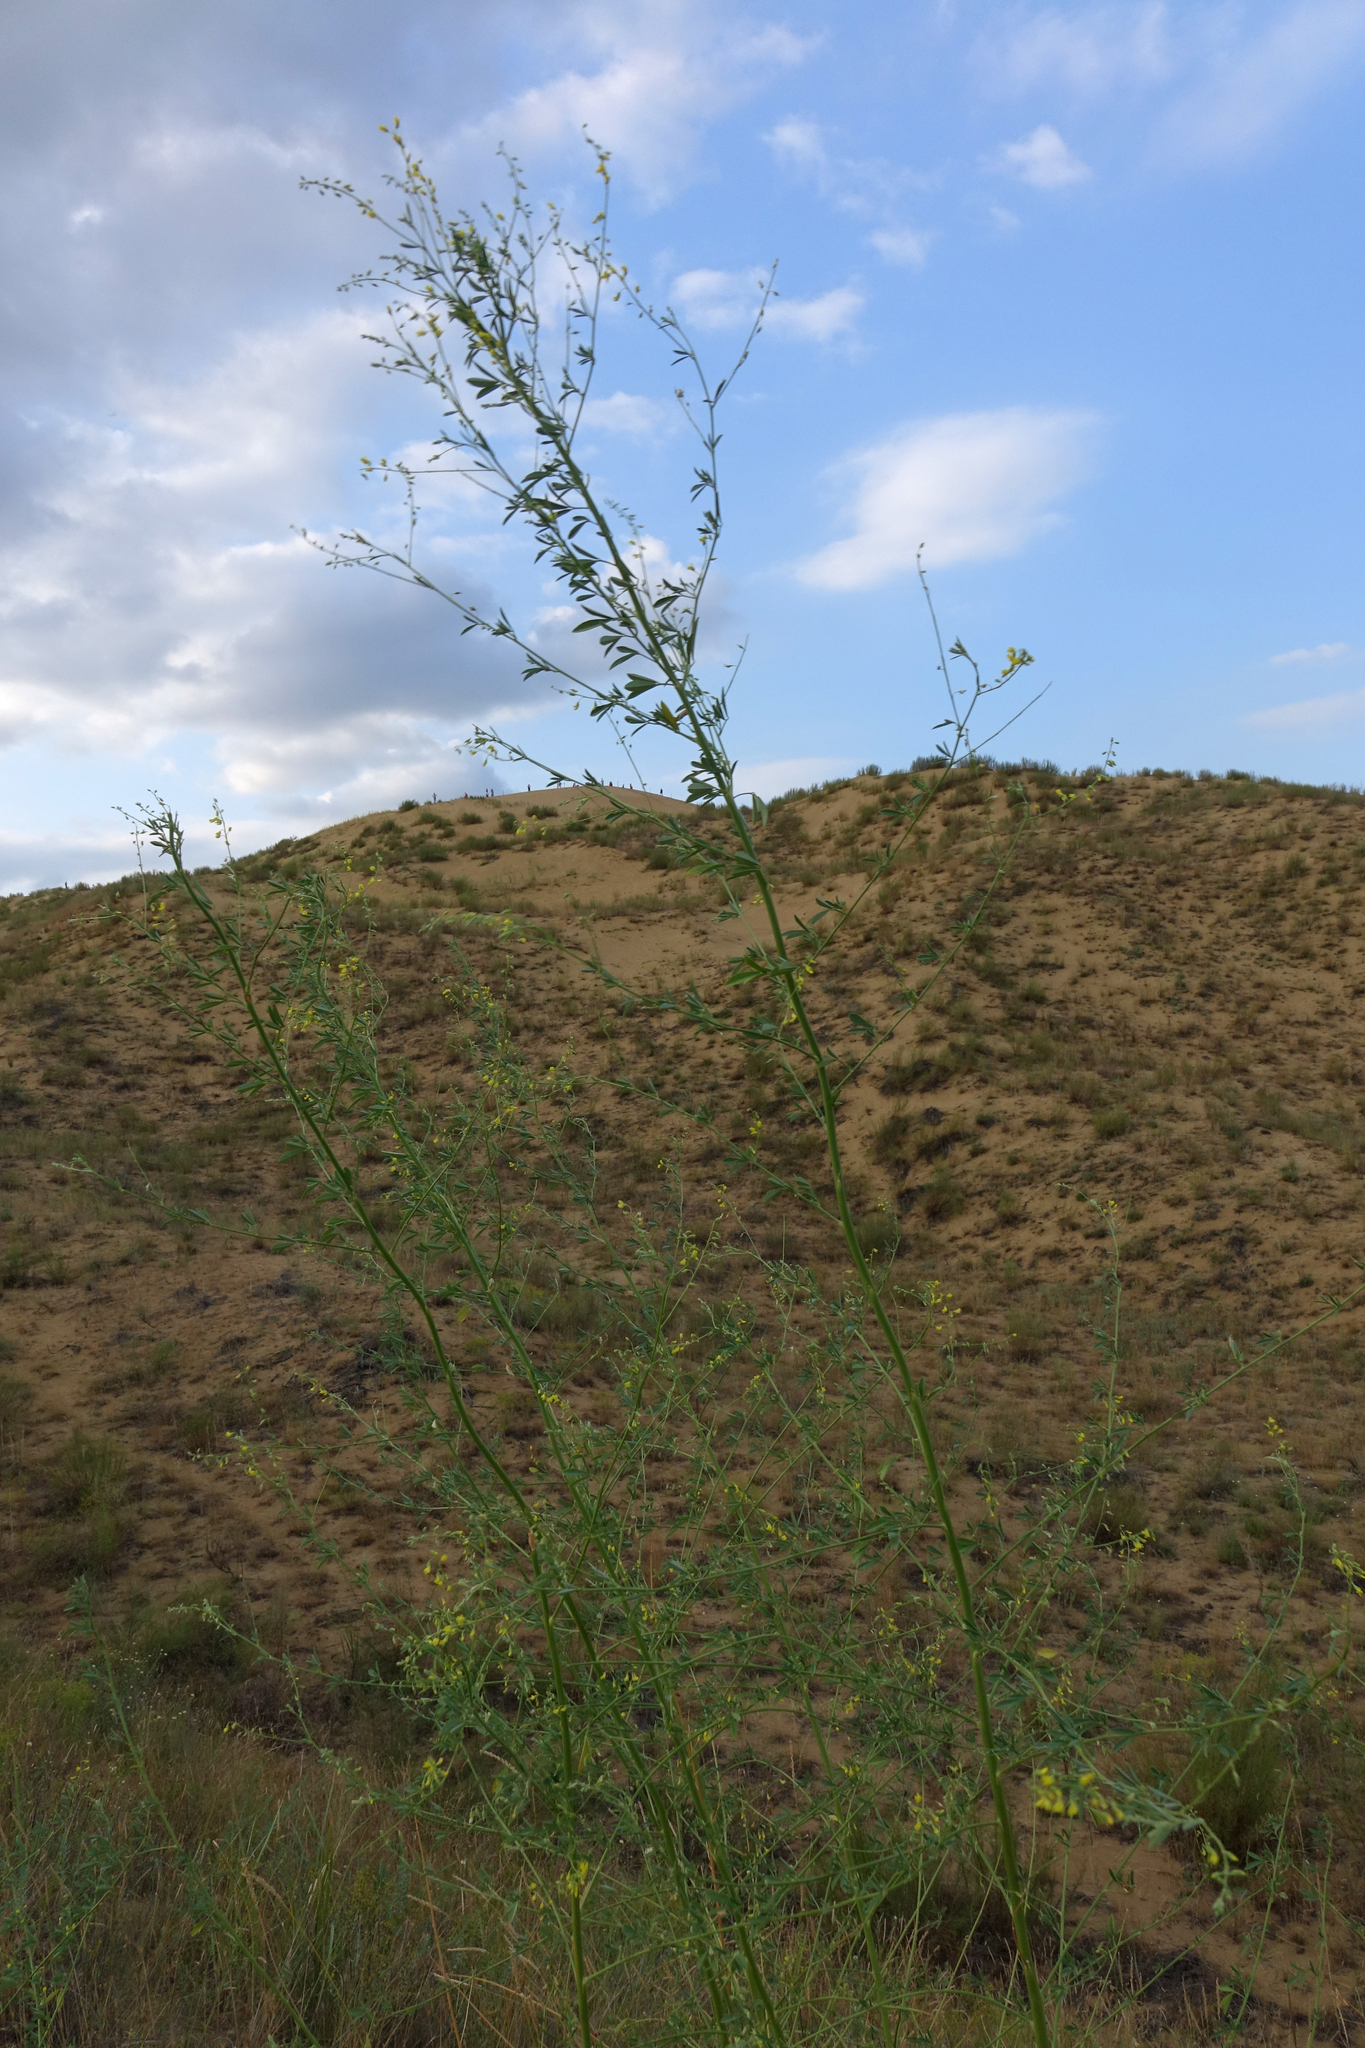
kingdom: Plantae
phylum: Tracheophyta
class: Magnoliopsida
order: Fabales
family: Fabaceae
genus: Melilotus
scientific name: Melilotus polonicus
